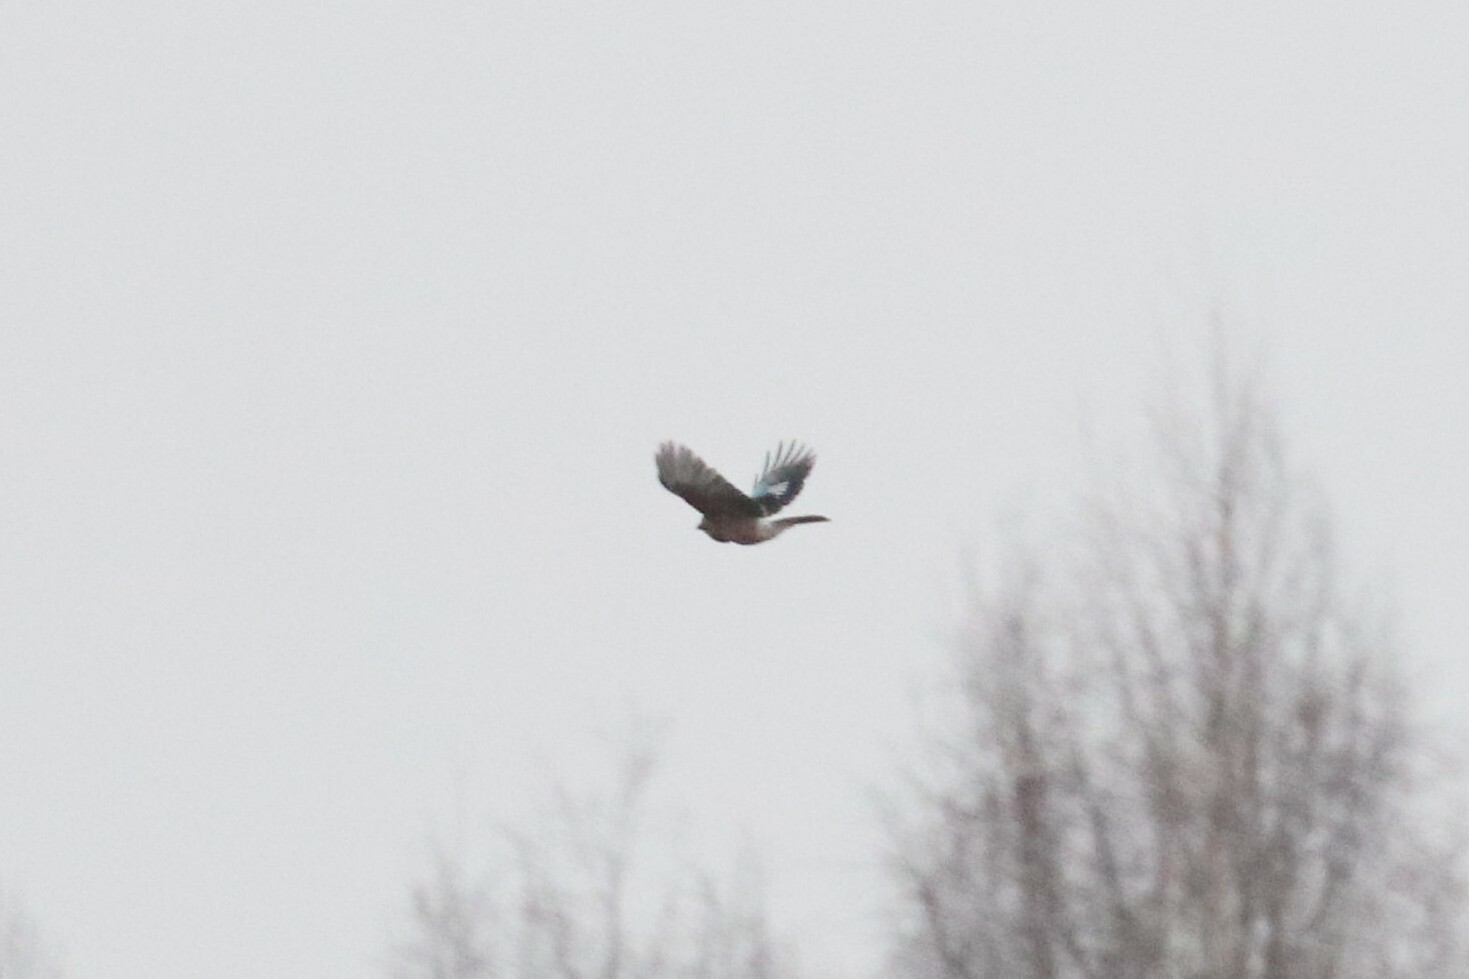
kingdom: Animalia
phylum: Chordata
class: Aves
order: Passeriformes
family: Corvidae
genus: Garrulus
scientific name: Garrulus glandarius
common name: Eurasian jay
